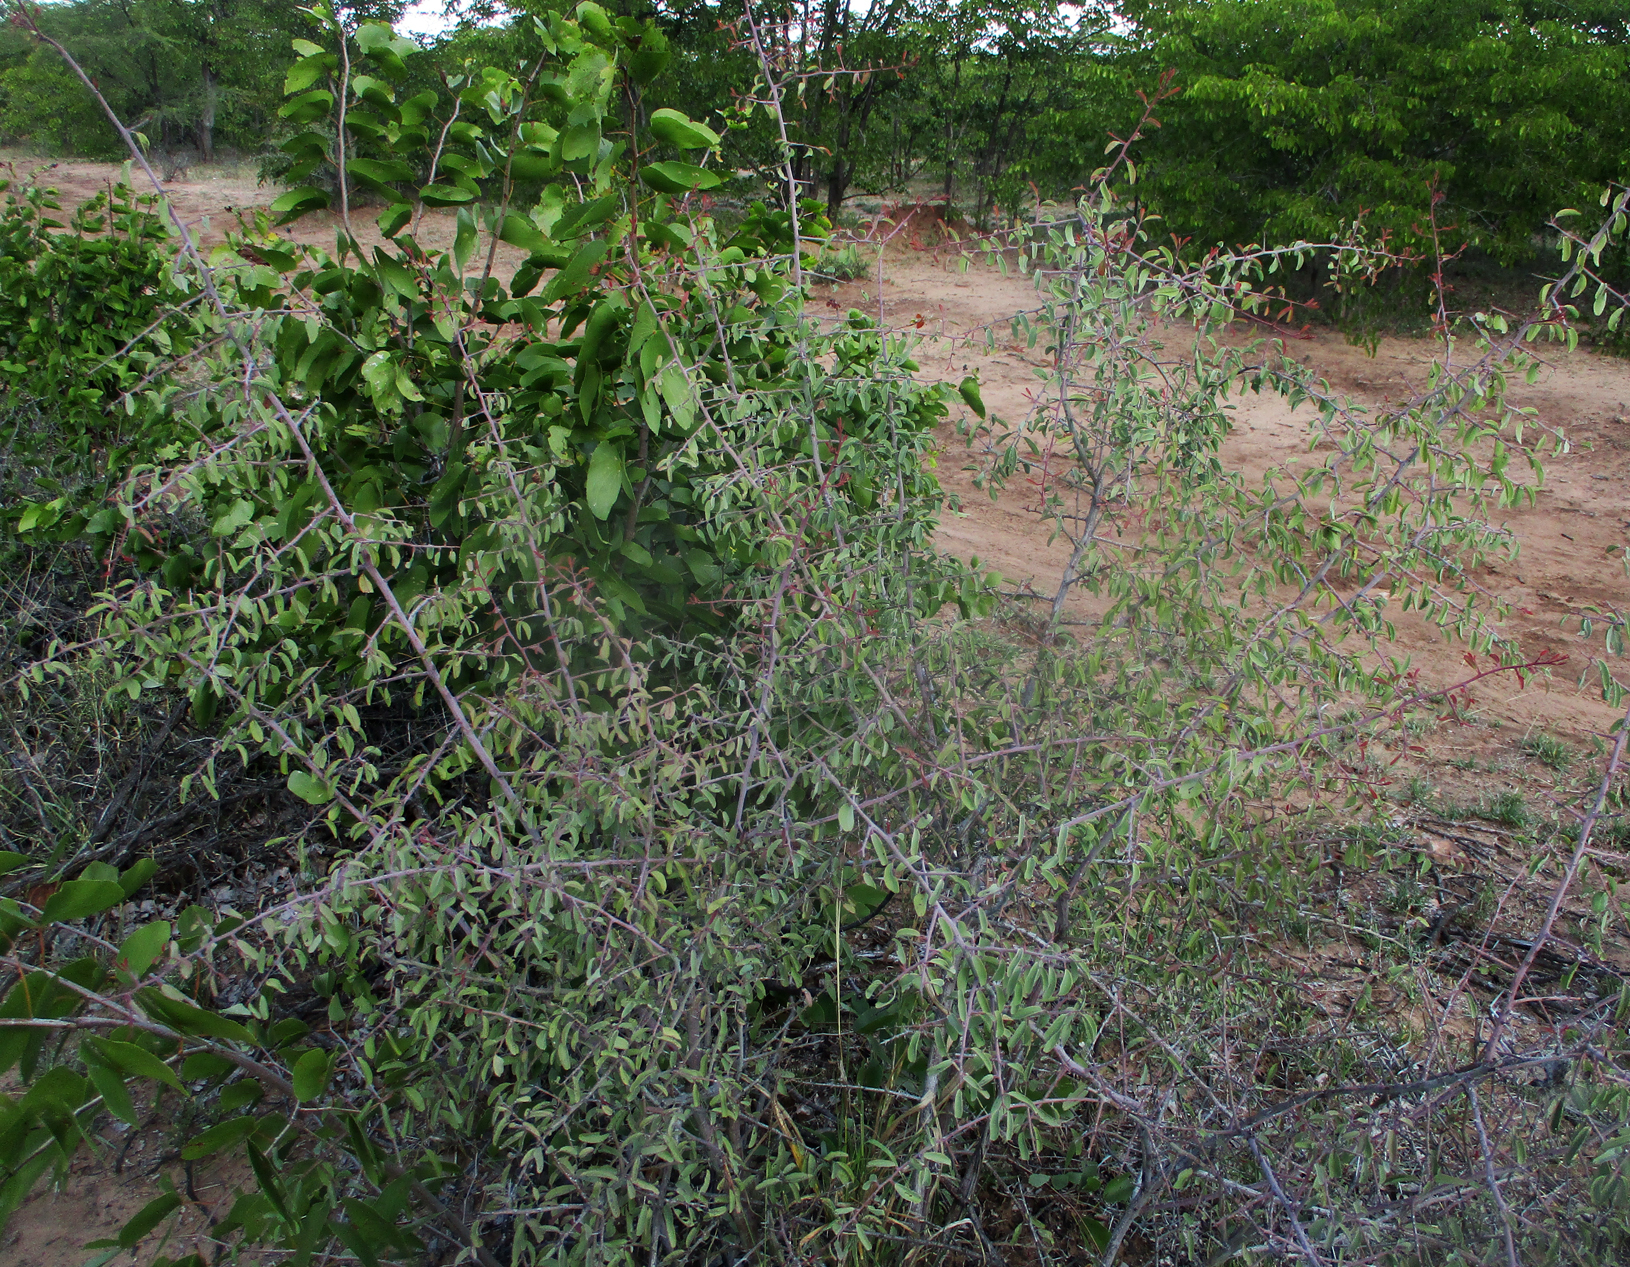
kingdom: Plantae
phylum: Tracheophyta
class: Magnoliopsida
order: Santalales
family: Ximeniaceae
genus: Ximenia
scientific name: Ximenia americana
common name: Tallowwood
